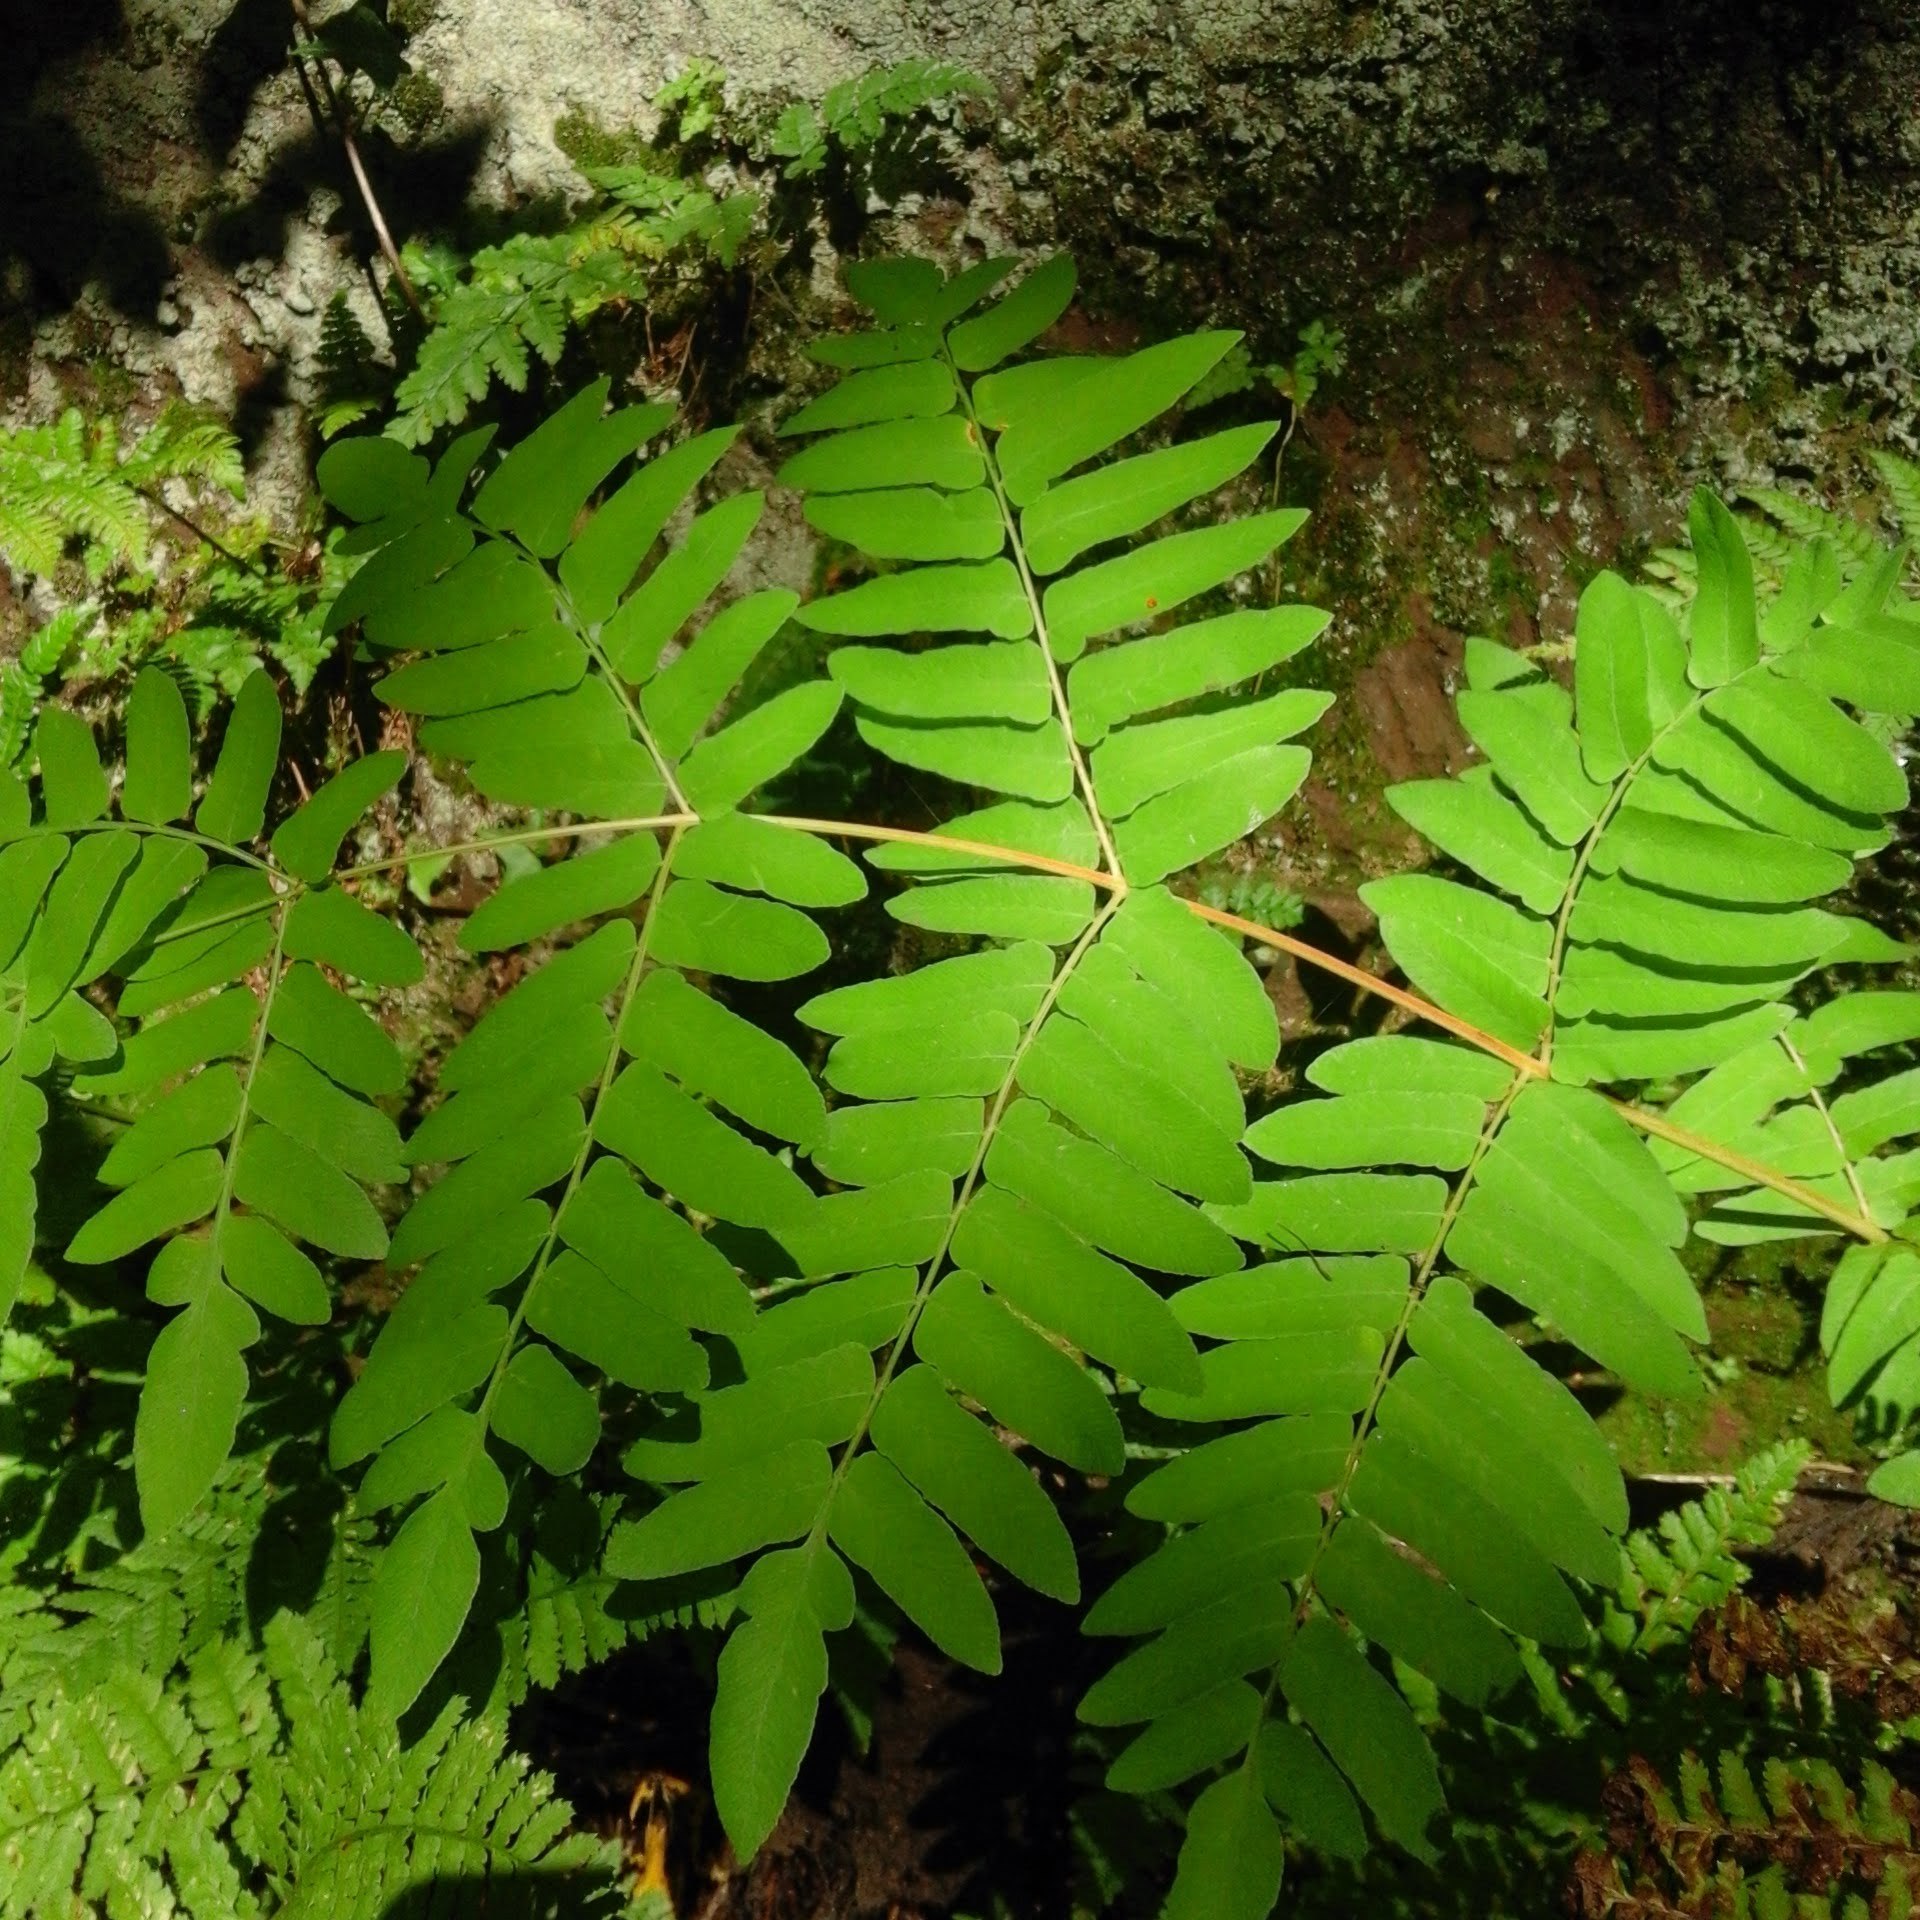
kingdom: Plantae
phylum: Tracheophyta
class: Polypodiopsida
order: Osmundales
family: Osmundaceae
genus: Osmunda
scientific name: Osmunda regalis
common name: Royal fern
